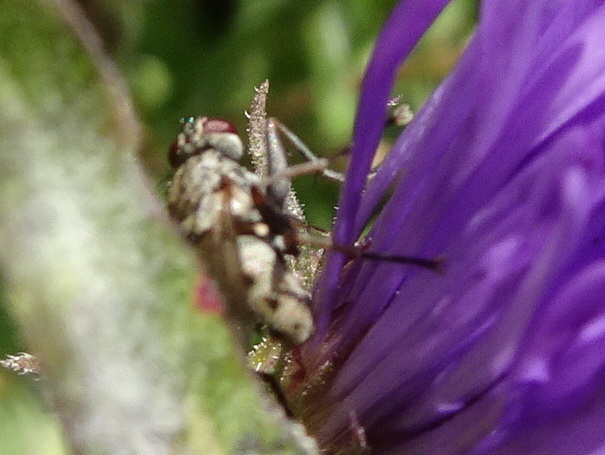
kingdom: Animalia
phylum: Arthropoda
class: Insecta
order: Diptera
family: Muscidae
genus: Coenosia
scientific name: Coenosia tigrina
